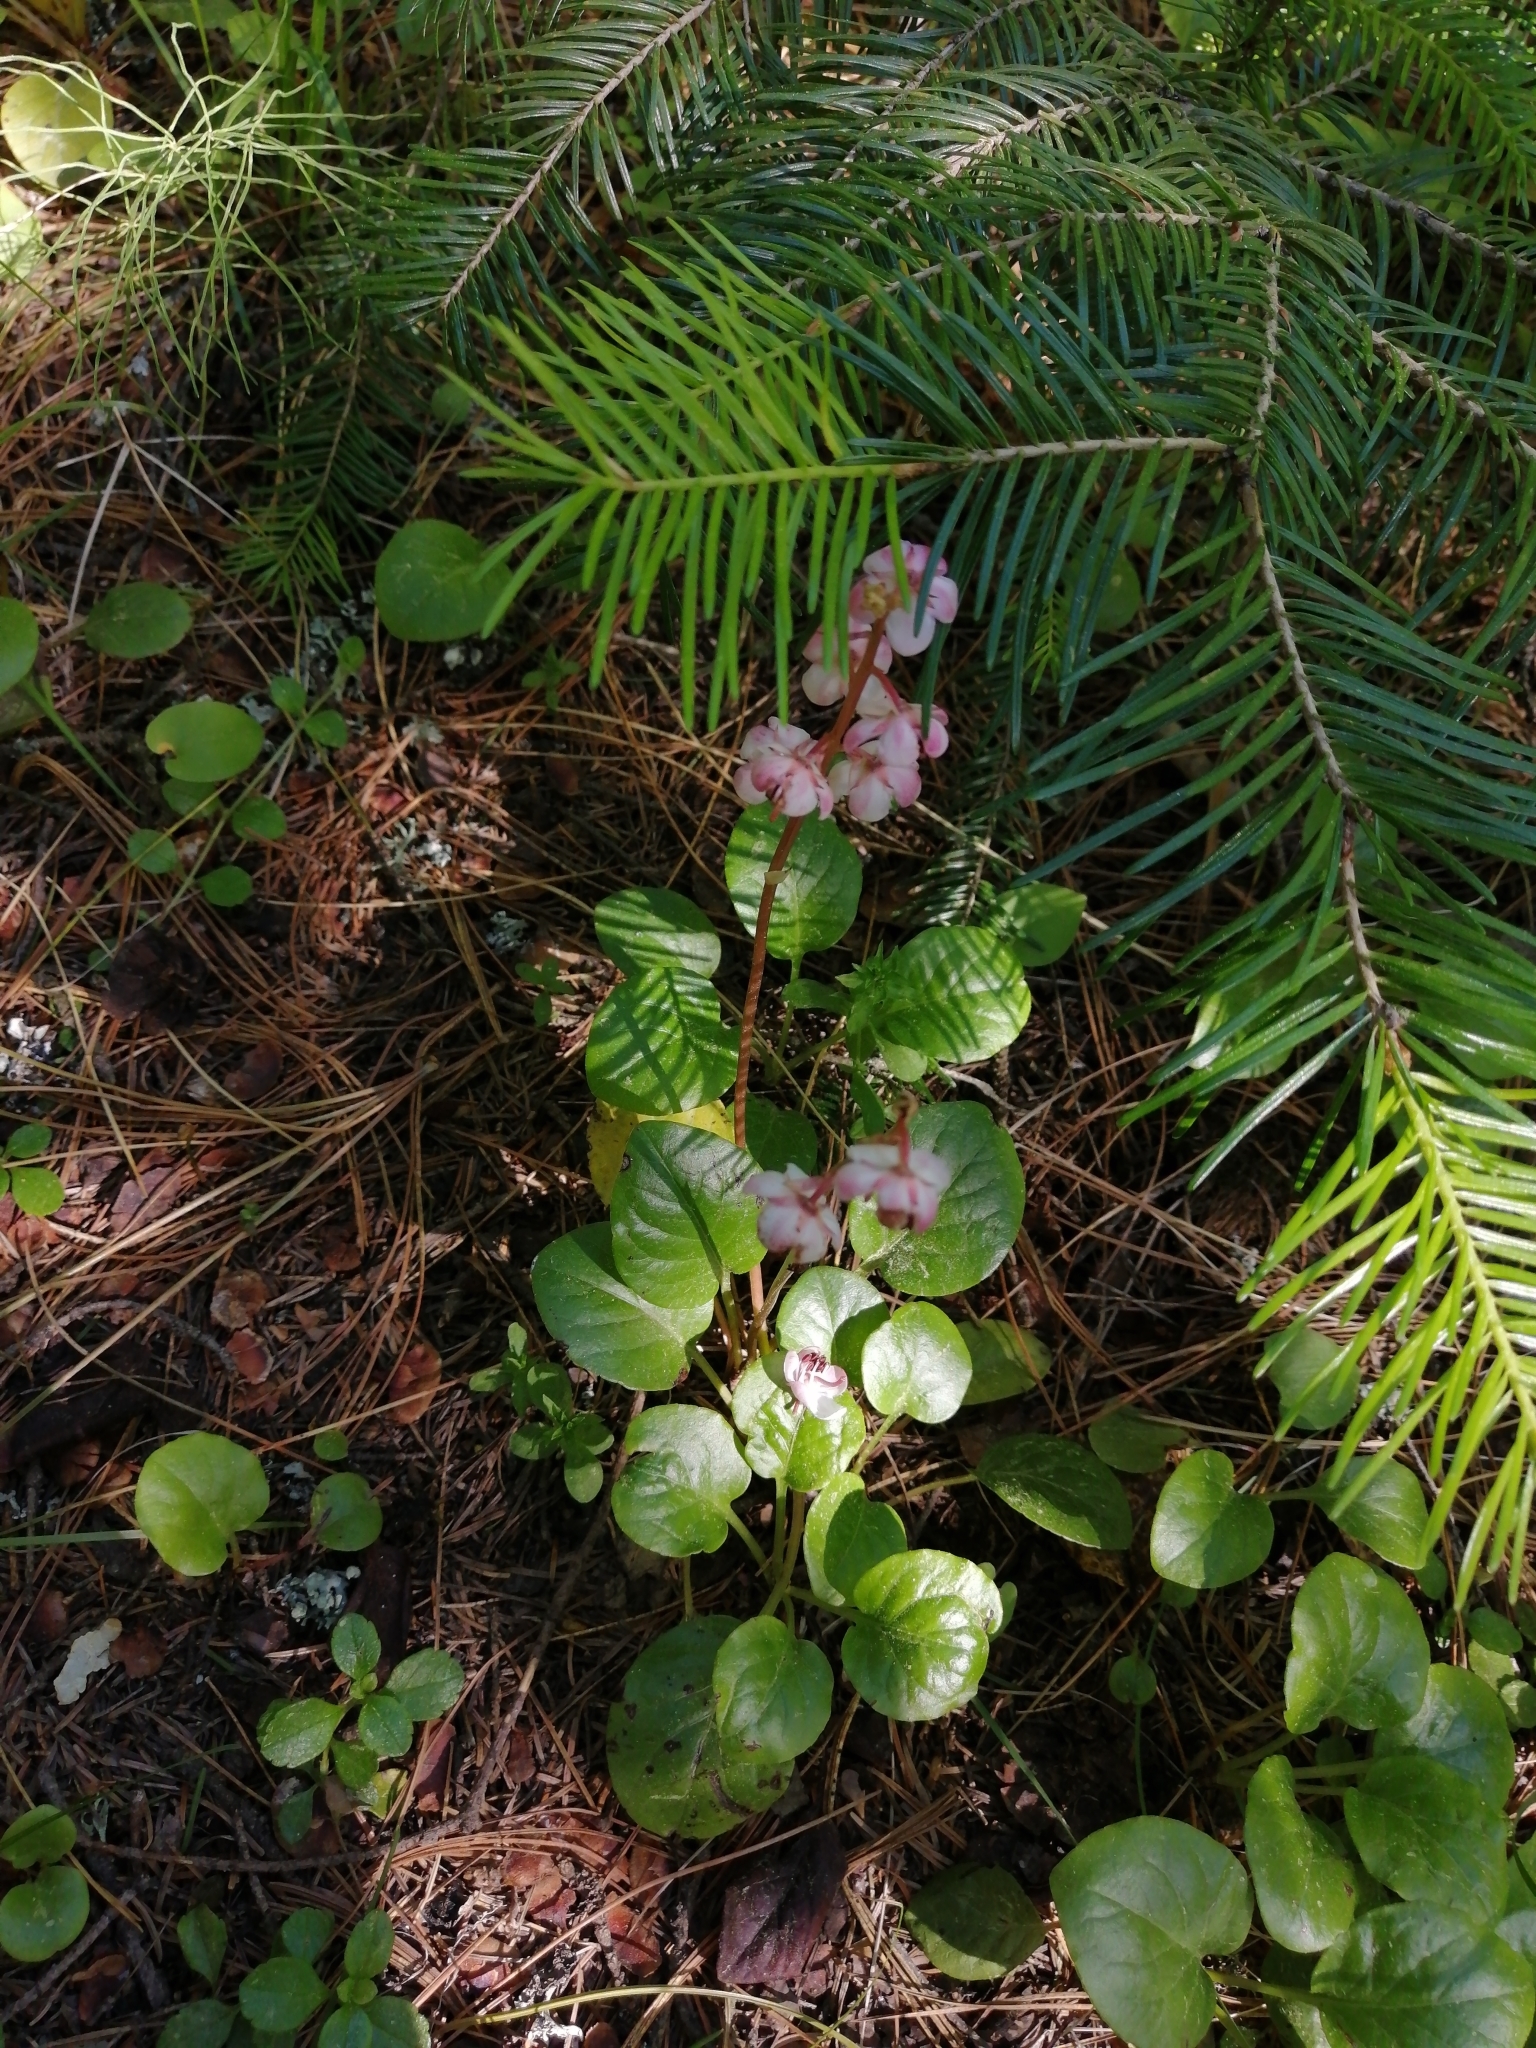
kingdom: Plantae
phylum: Tracheophyta
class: Magnoliopsida
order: Ericales
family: Ericaceae
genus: Pyrola
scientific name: Pyrola asarifolia
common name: Bog wintergreen
